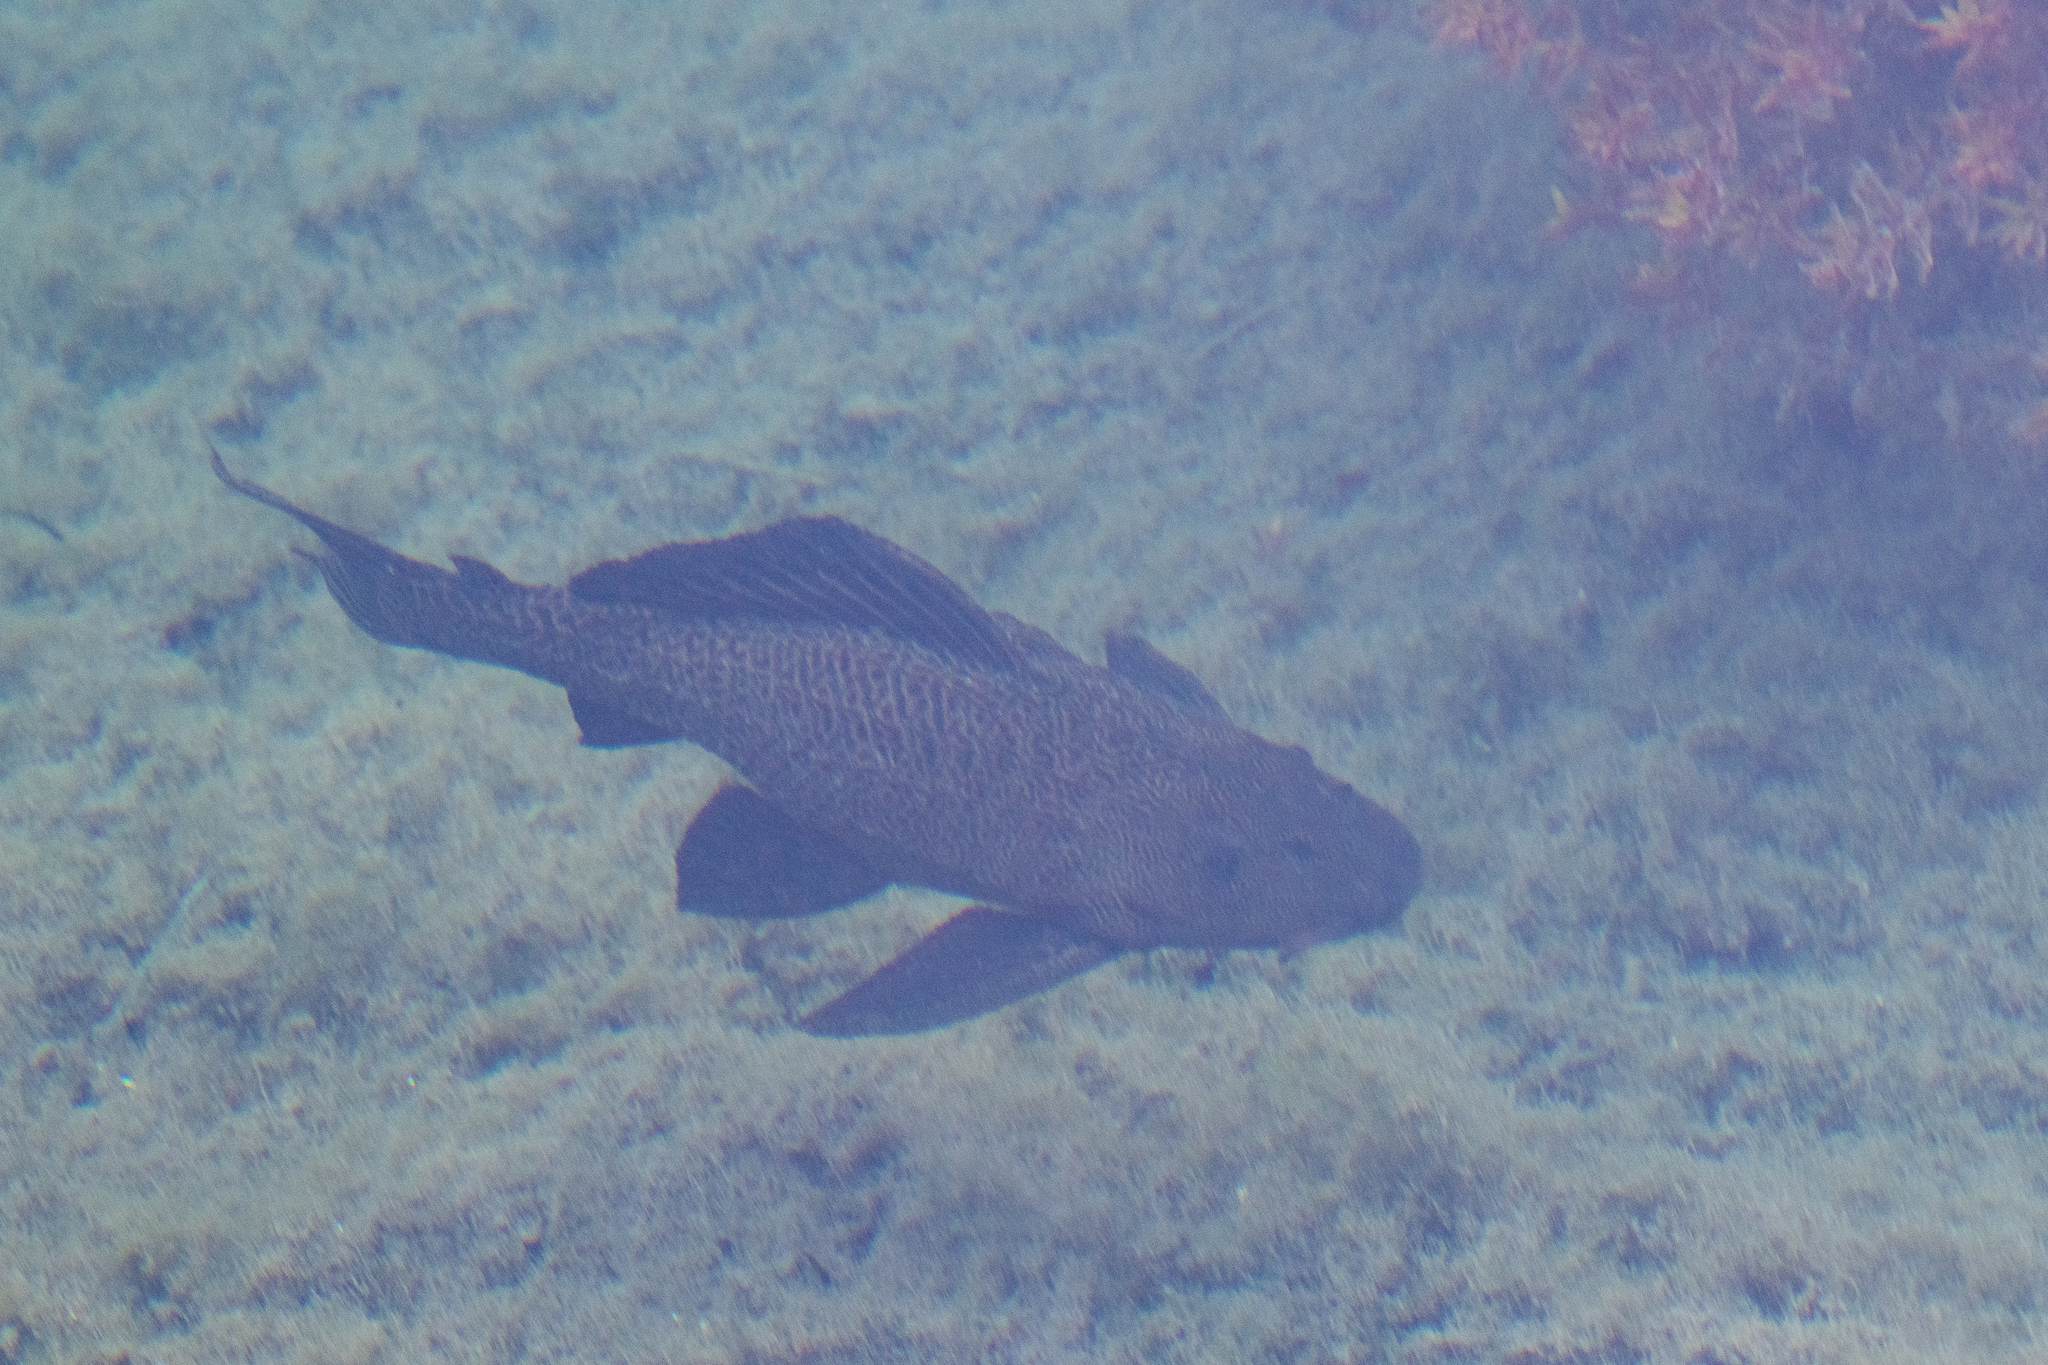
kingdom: Animalia
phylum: Chordata
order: Siluriformes
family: Loricariidae
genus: Pterygoplichthys
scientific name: Pterygoplichthys
